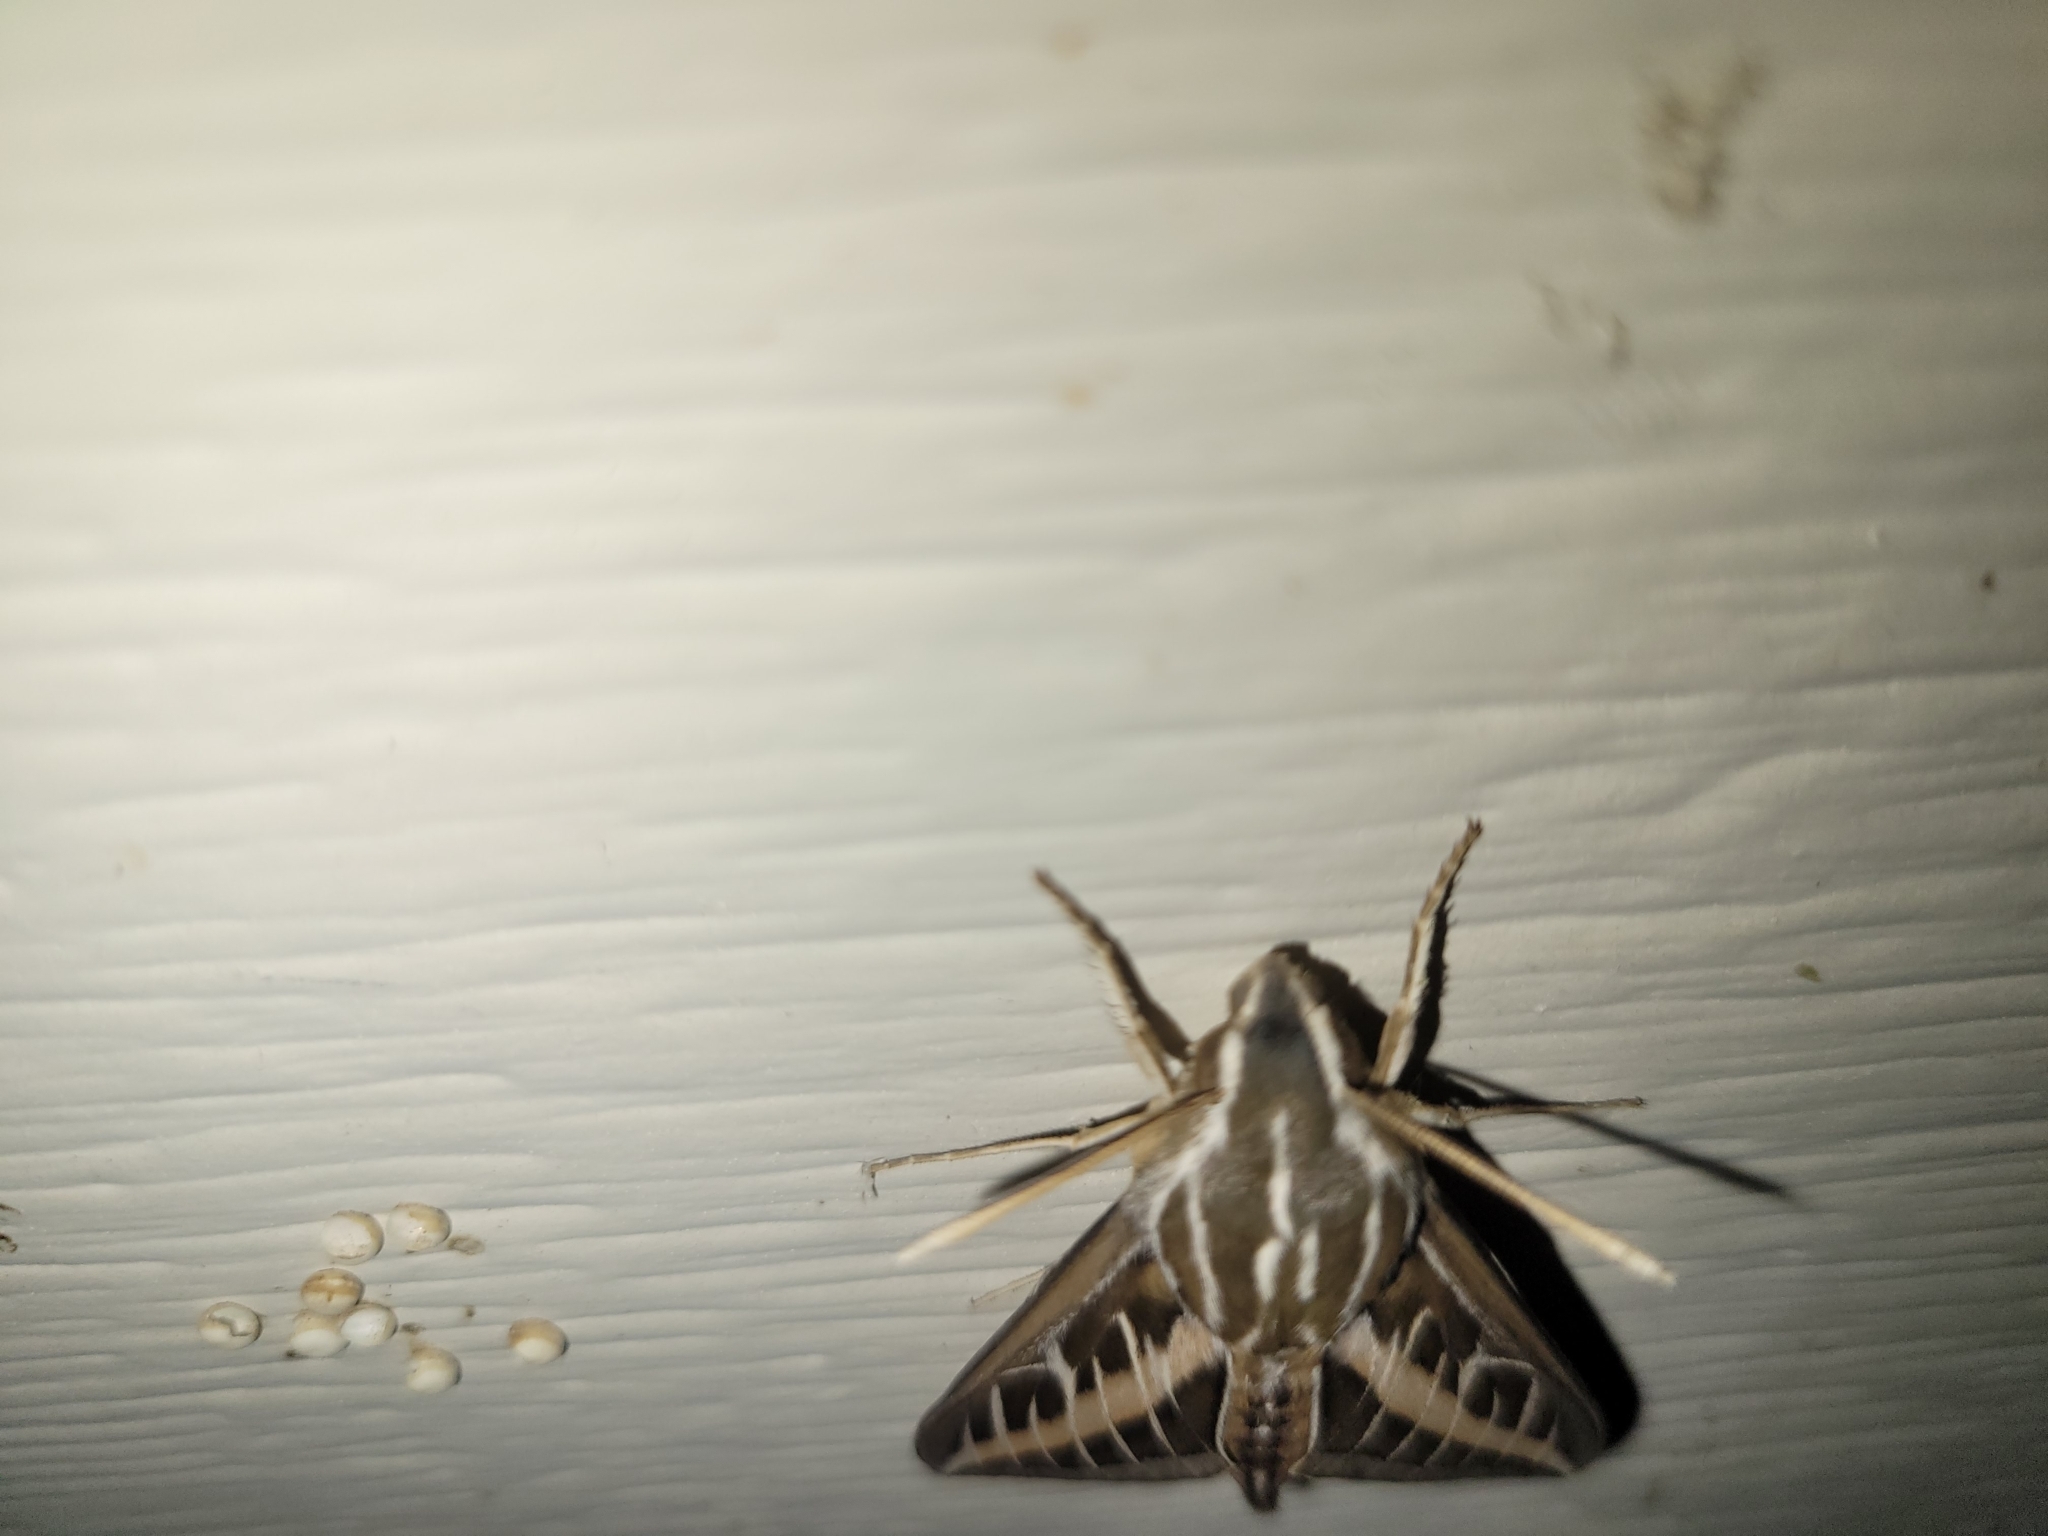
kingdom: Animalia
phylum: Arthropoda
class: Insecta
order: Lepidoptera
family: Sphingidae
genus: Hyles
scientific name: Hyles lineata
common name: White-lined sphinx
